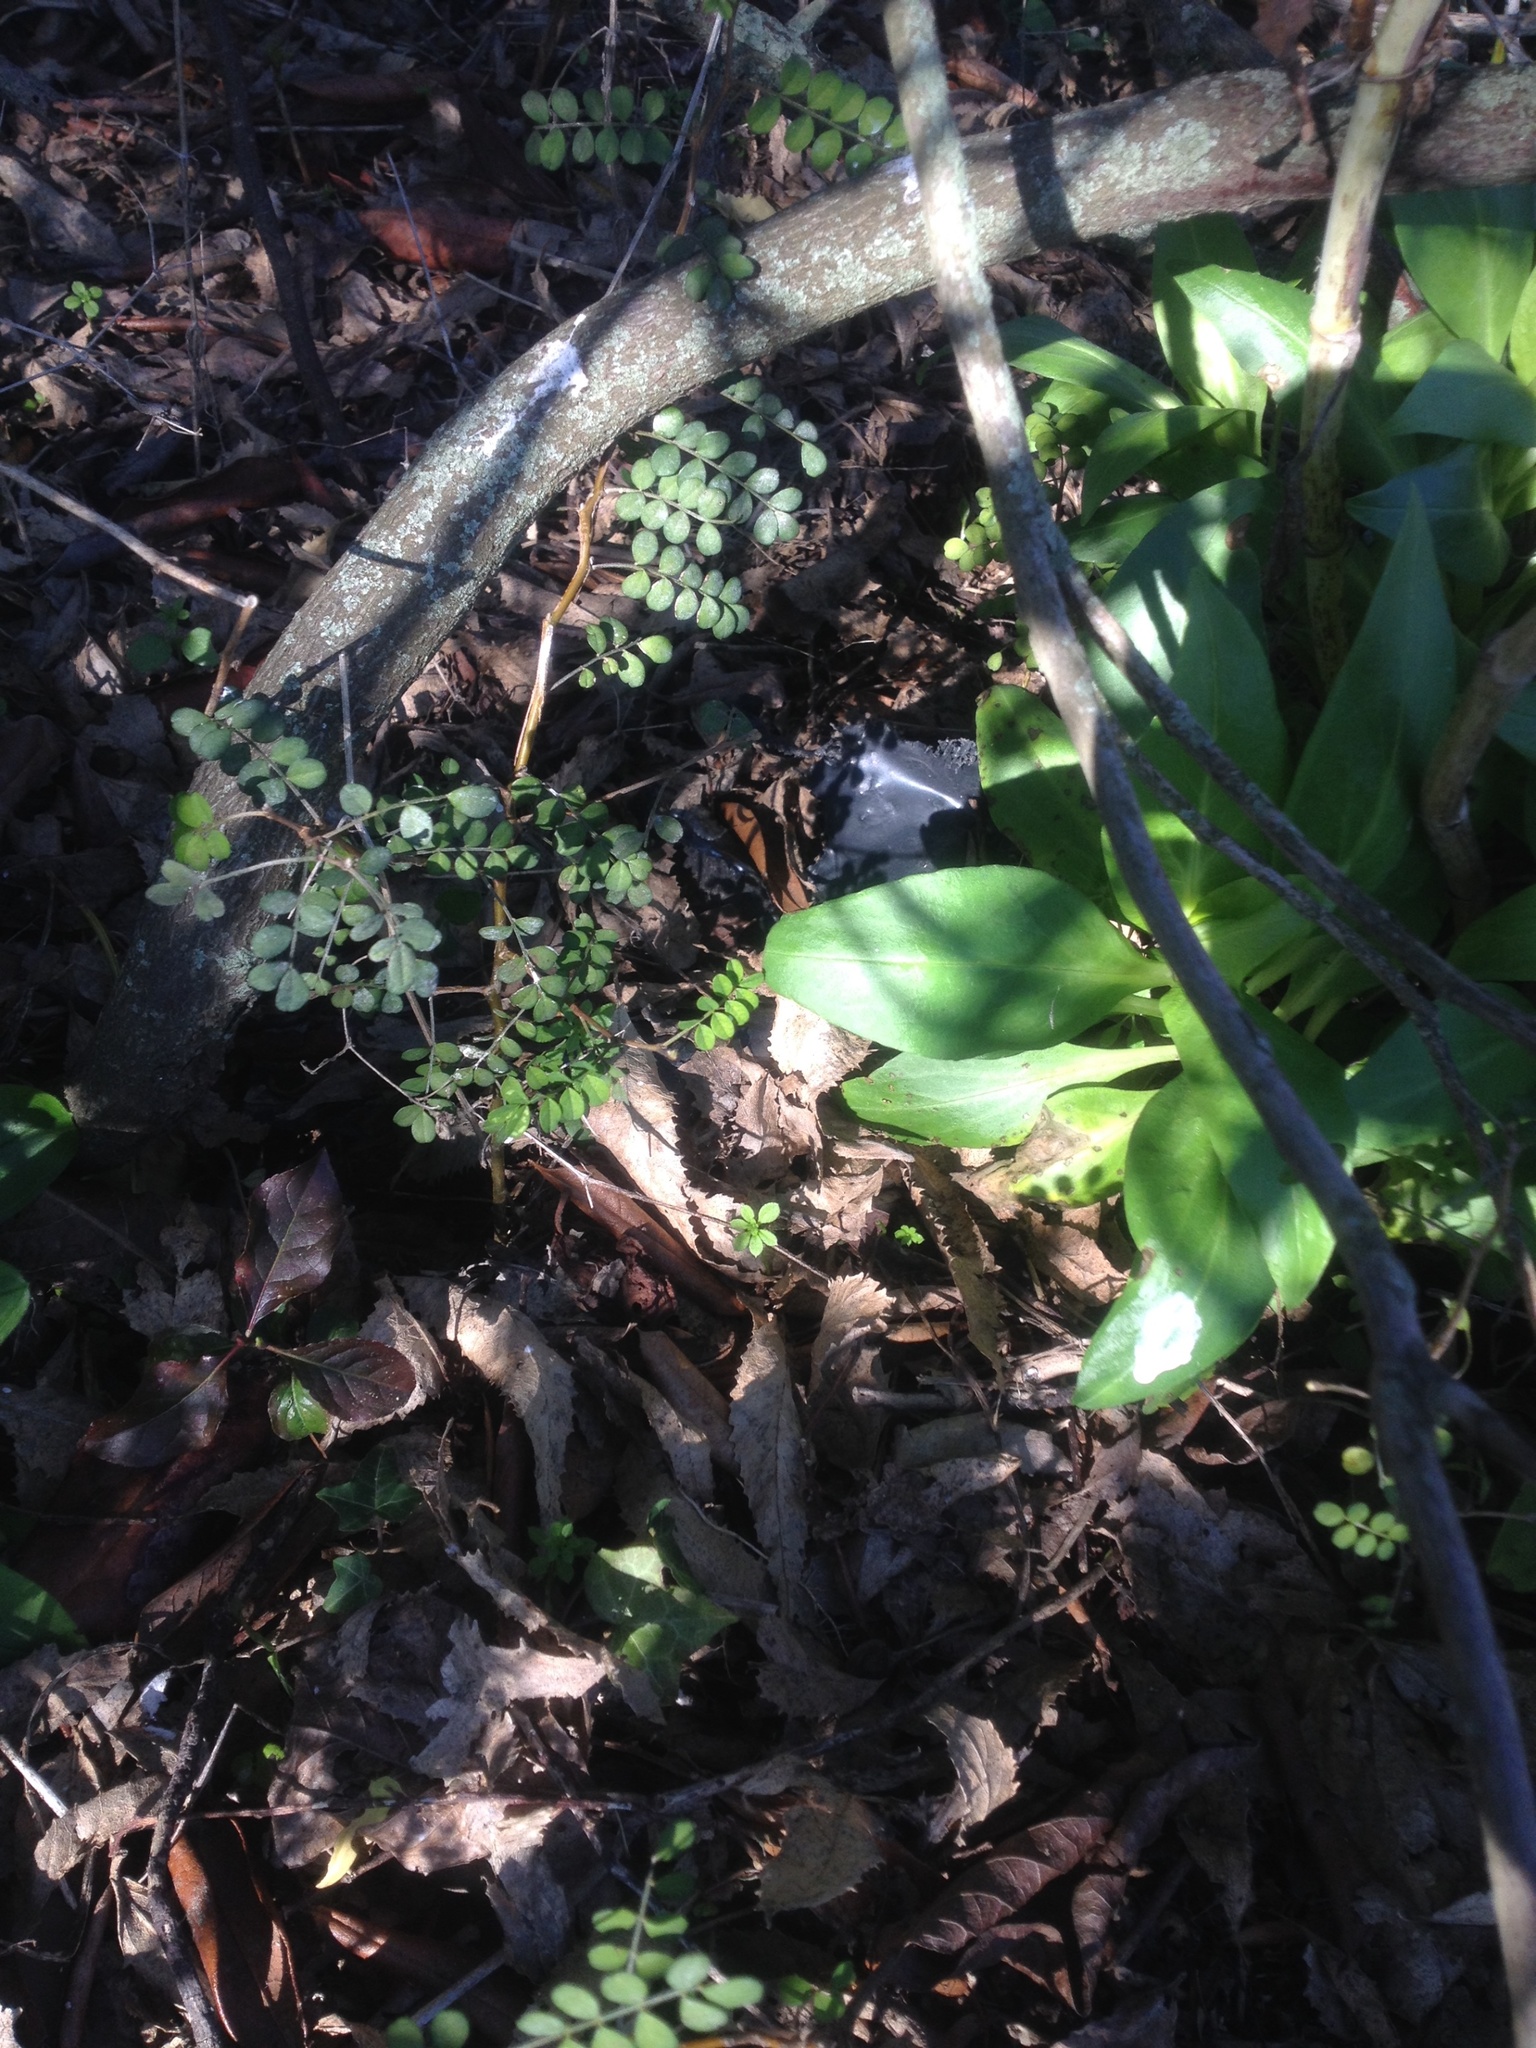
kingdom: Plantae
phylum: Tracheophyta
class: Magnoliopsida
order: Fabales
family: Fabaceae
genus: Sophora
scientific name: Sophora microphylla
